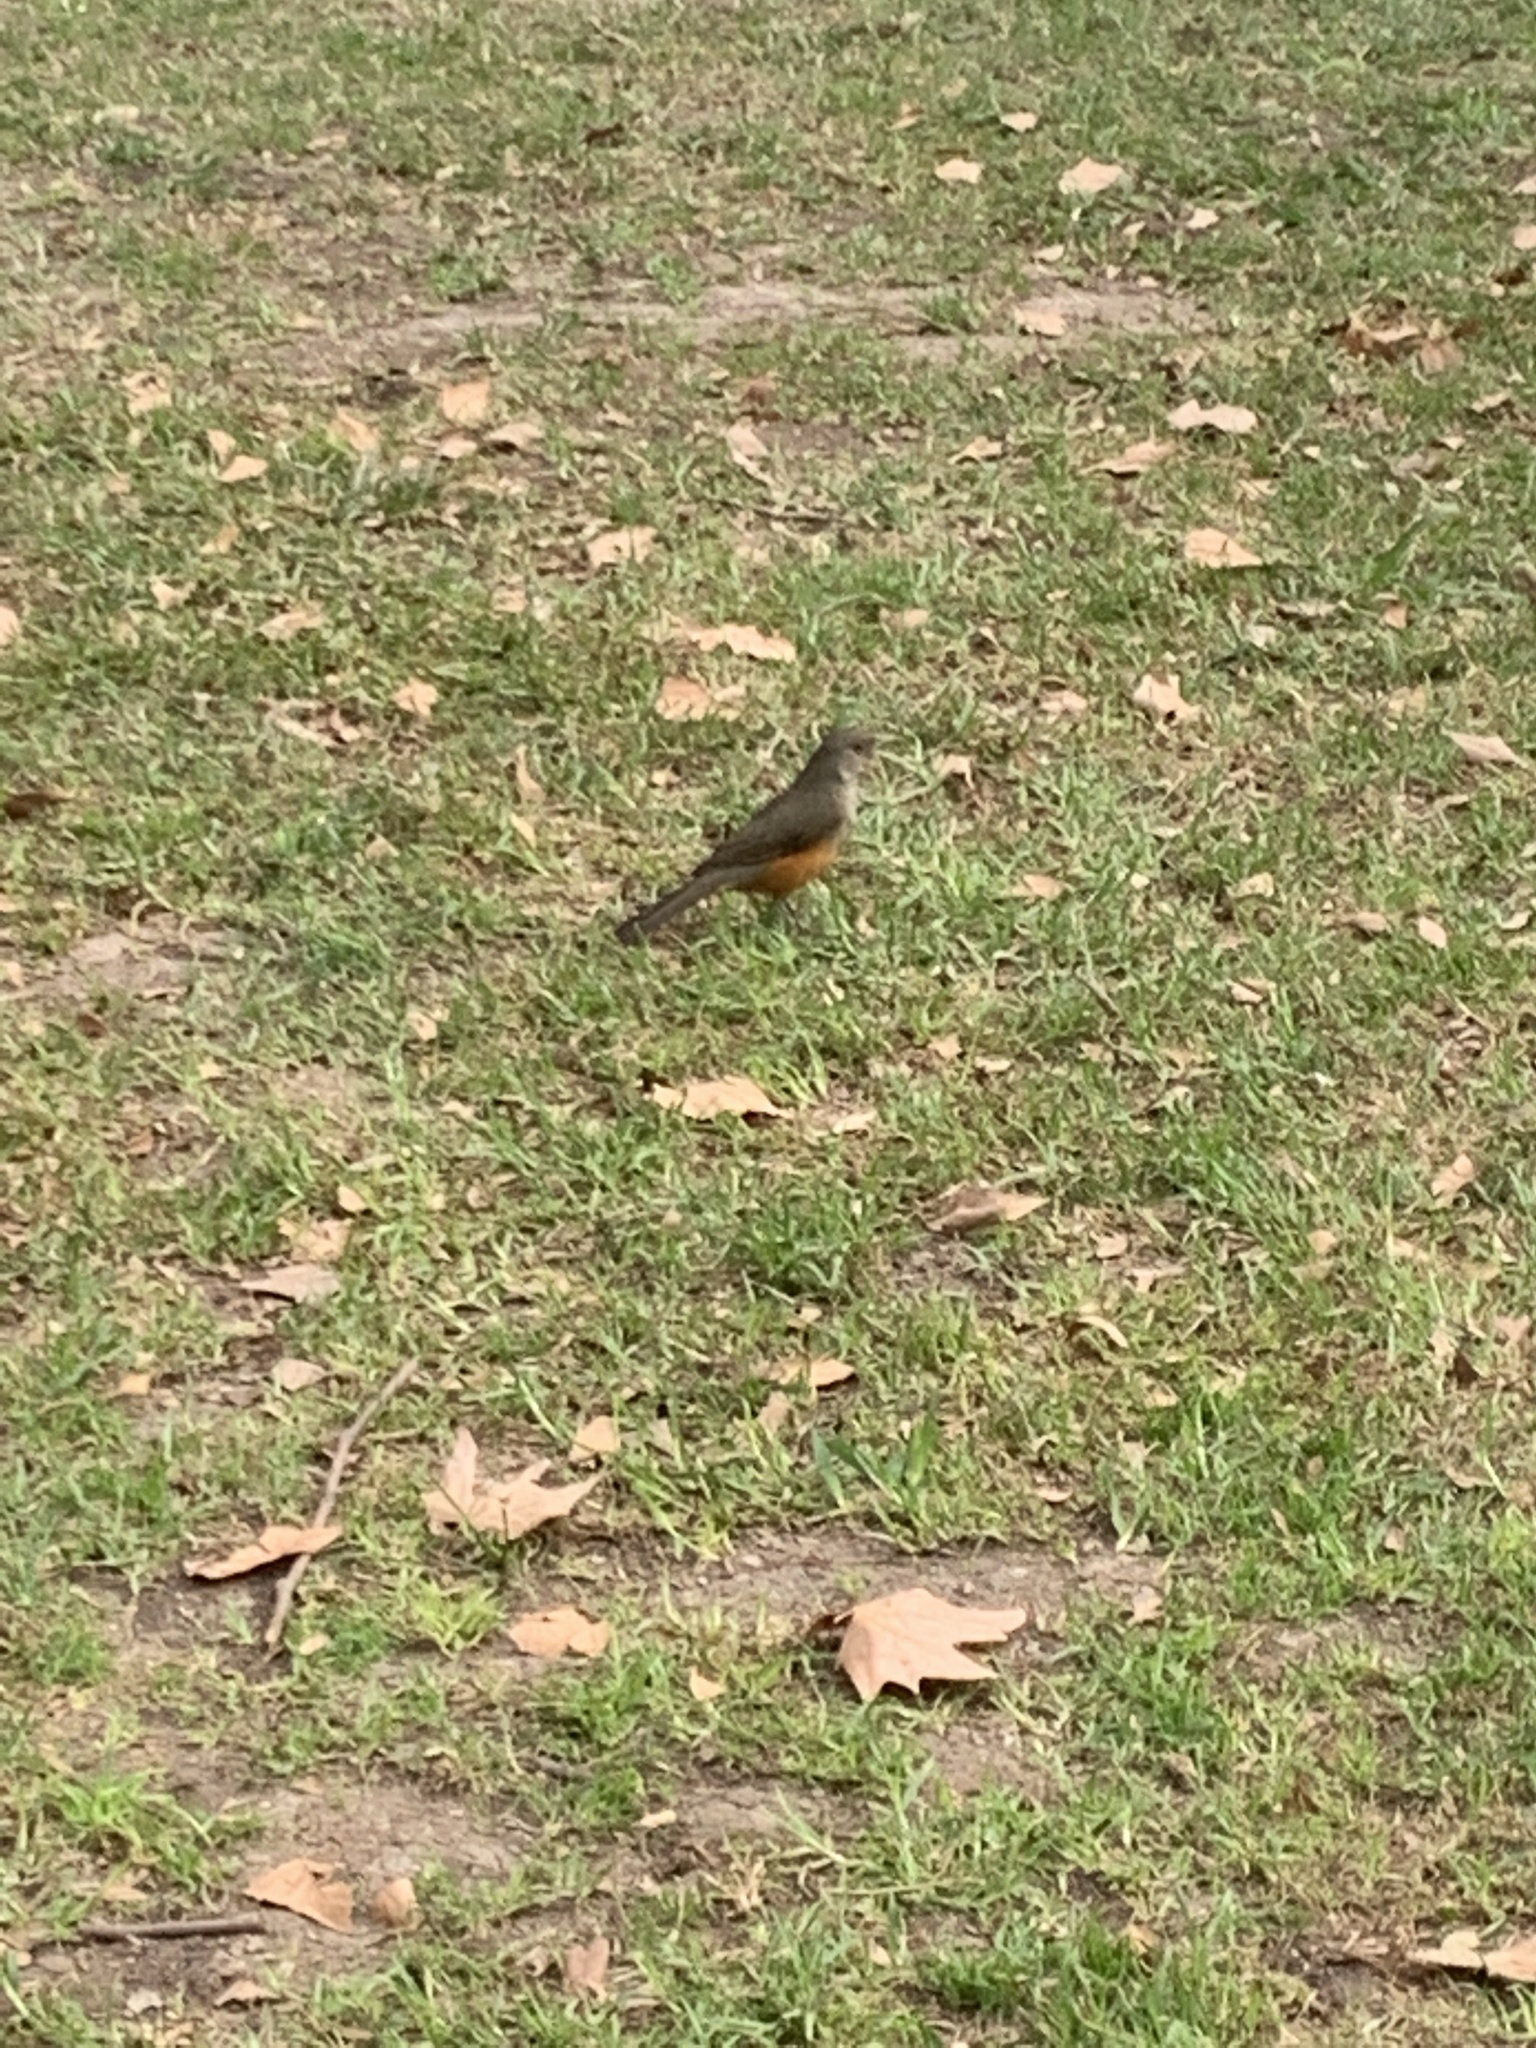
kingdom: Animalia
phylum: Chordata
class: Aves
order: Passeriformes
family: Turdidae
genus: Turdus
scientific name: Turdus rufiventris
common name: Rufous-bellied thrush
